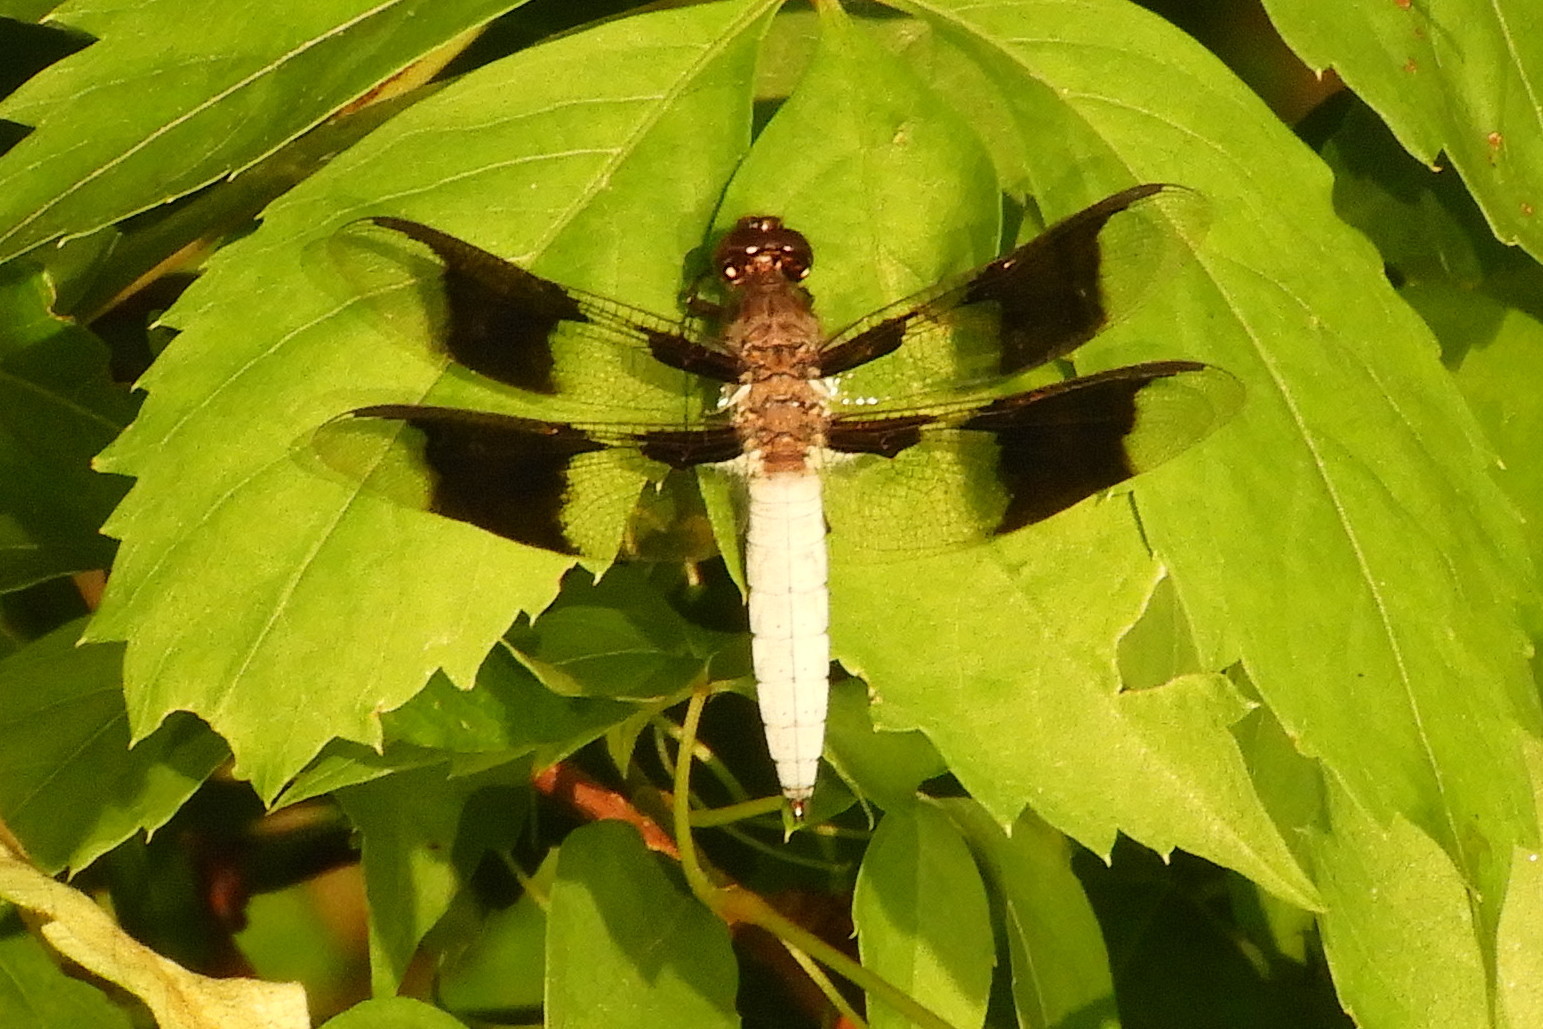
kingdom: Animalia
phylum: Arthropoda
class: Insecta
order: Odonata
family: Libellulidae
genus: Plathemis
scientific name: Plathemis lydia
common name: Common whitetail
